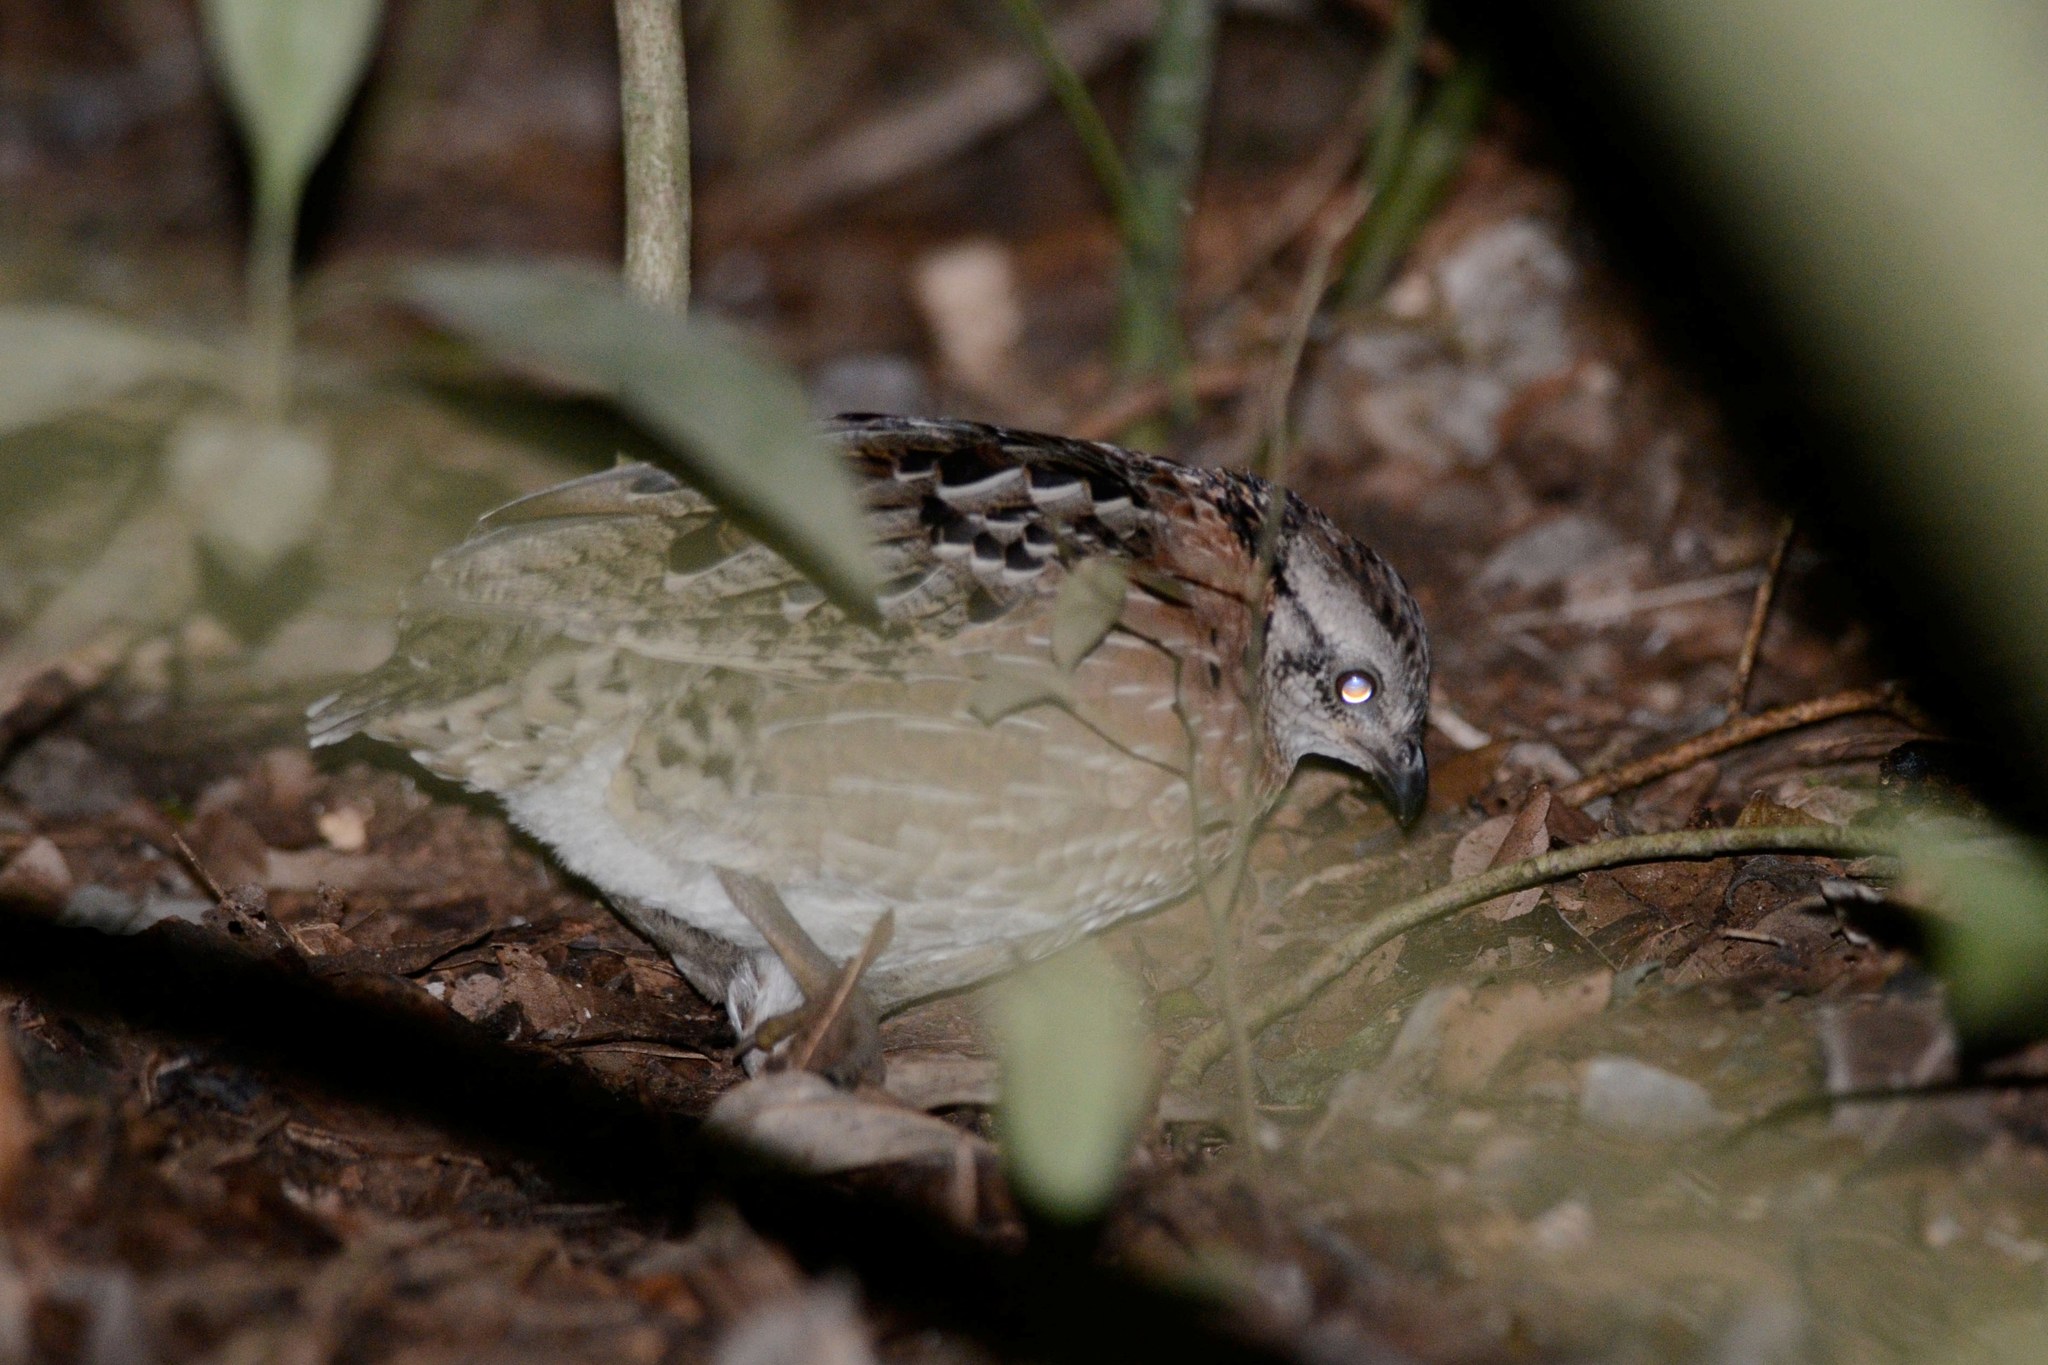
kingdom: Animalia
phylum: Chordata
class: Aves
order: Galliformes
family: Odontophoridae
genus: Dactylortyx
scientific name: Dactylortyx thoracicus
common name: Singing quail
